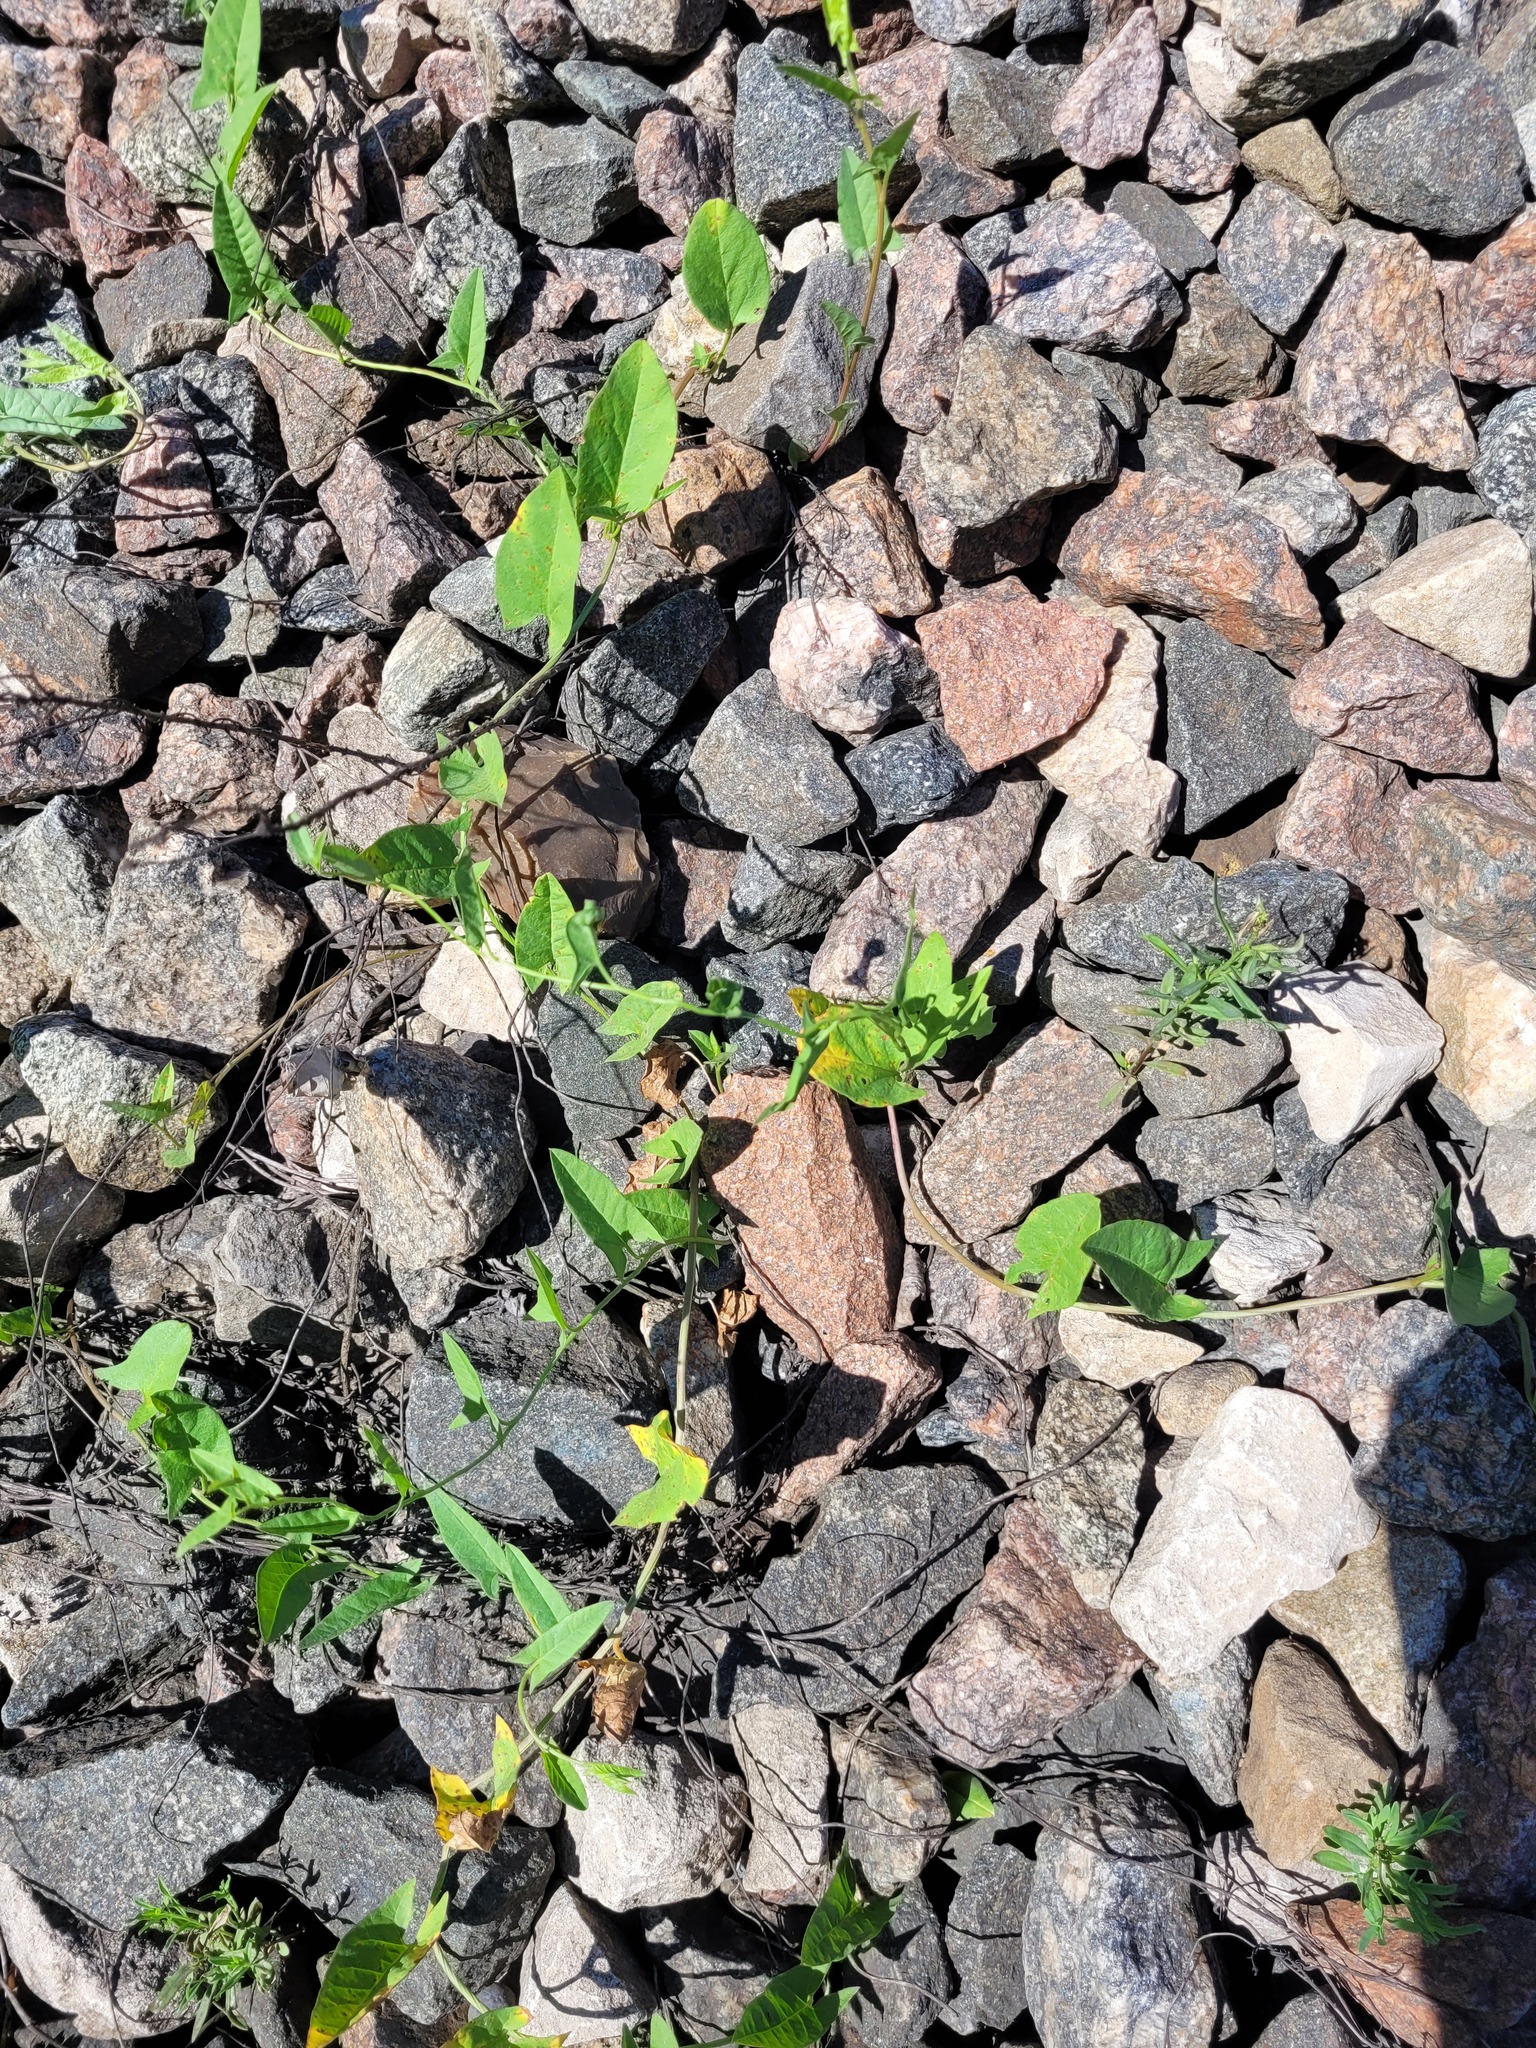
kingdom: Plantae
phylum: Tracheophyta
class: Magnoliopsida
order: Solanales
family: Convolvulaceae
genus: Convolvulus
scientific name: Convolvulus arvensis
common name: Field bindweed
